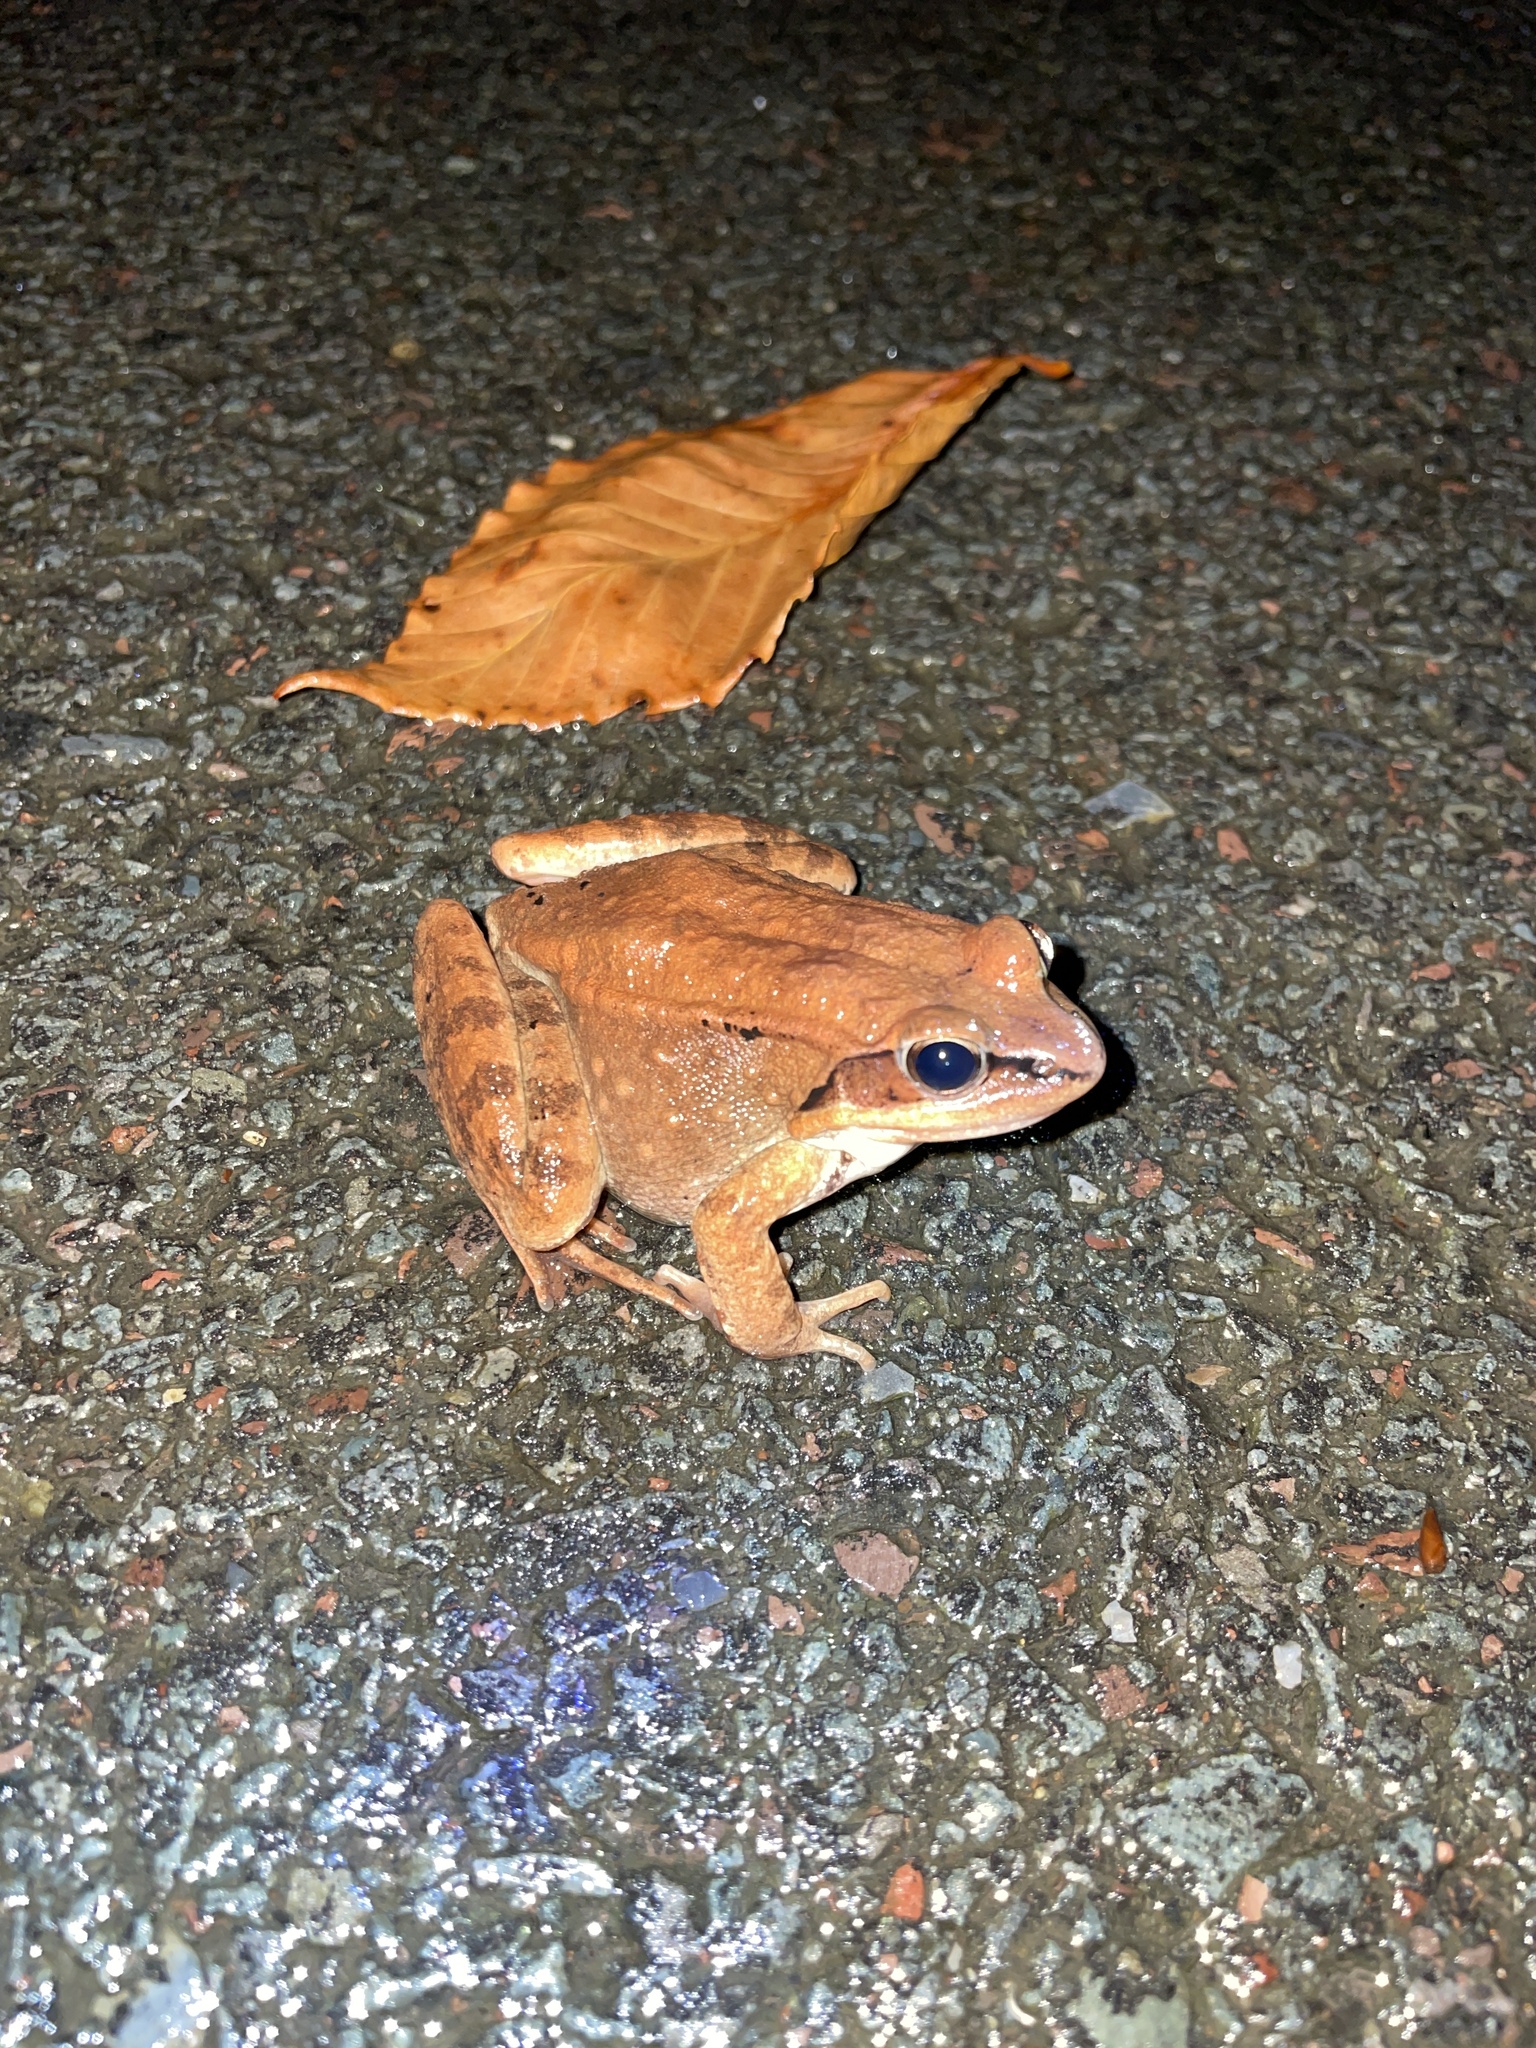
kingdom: Animalia
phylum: Chordata
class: Amphibia
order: Anura
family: Ranidae
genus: Lithobates
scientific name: Lithobates sylvaticus
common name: Wood frog
